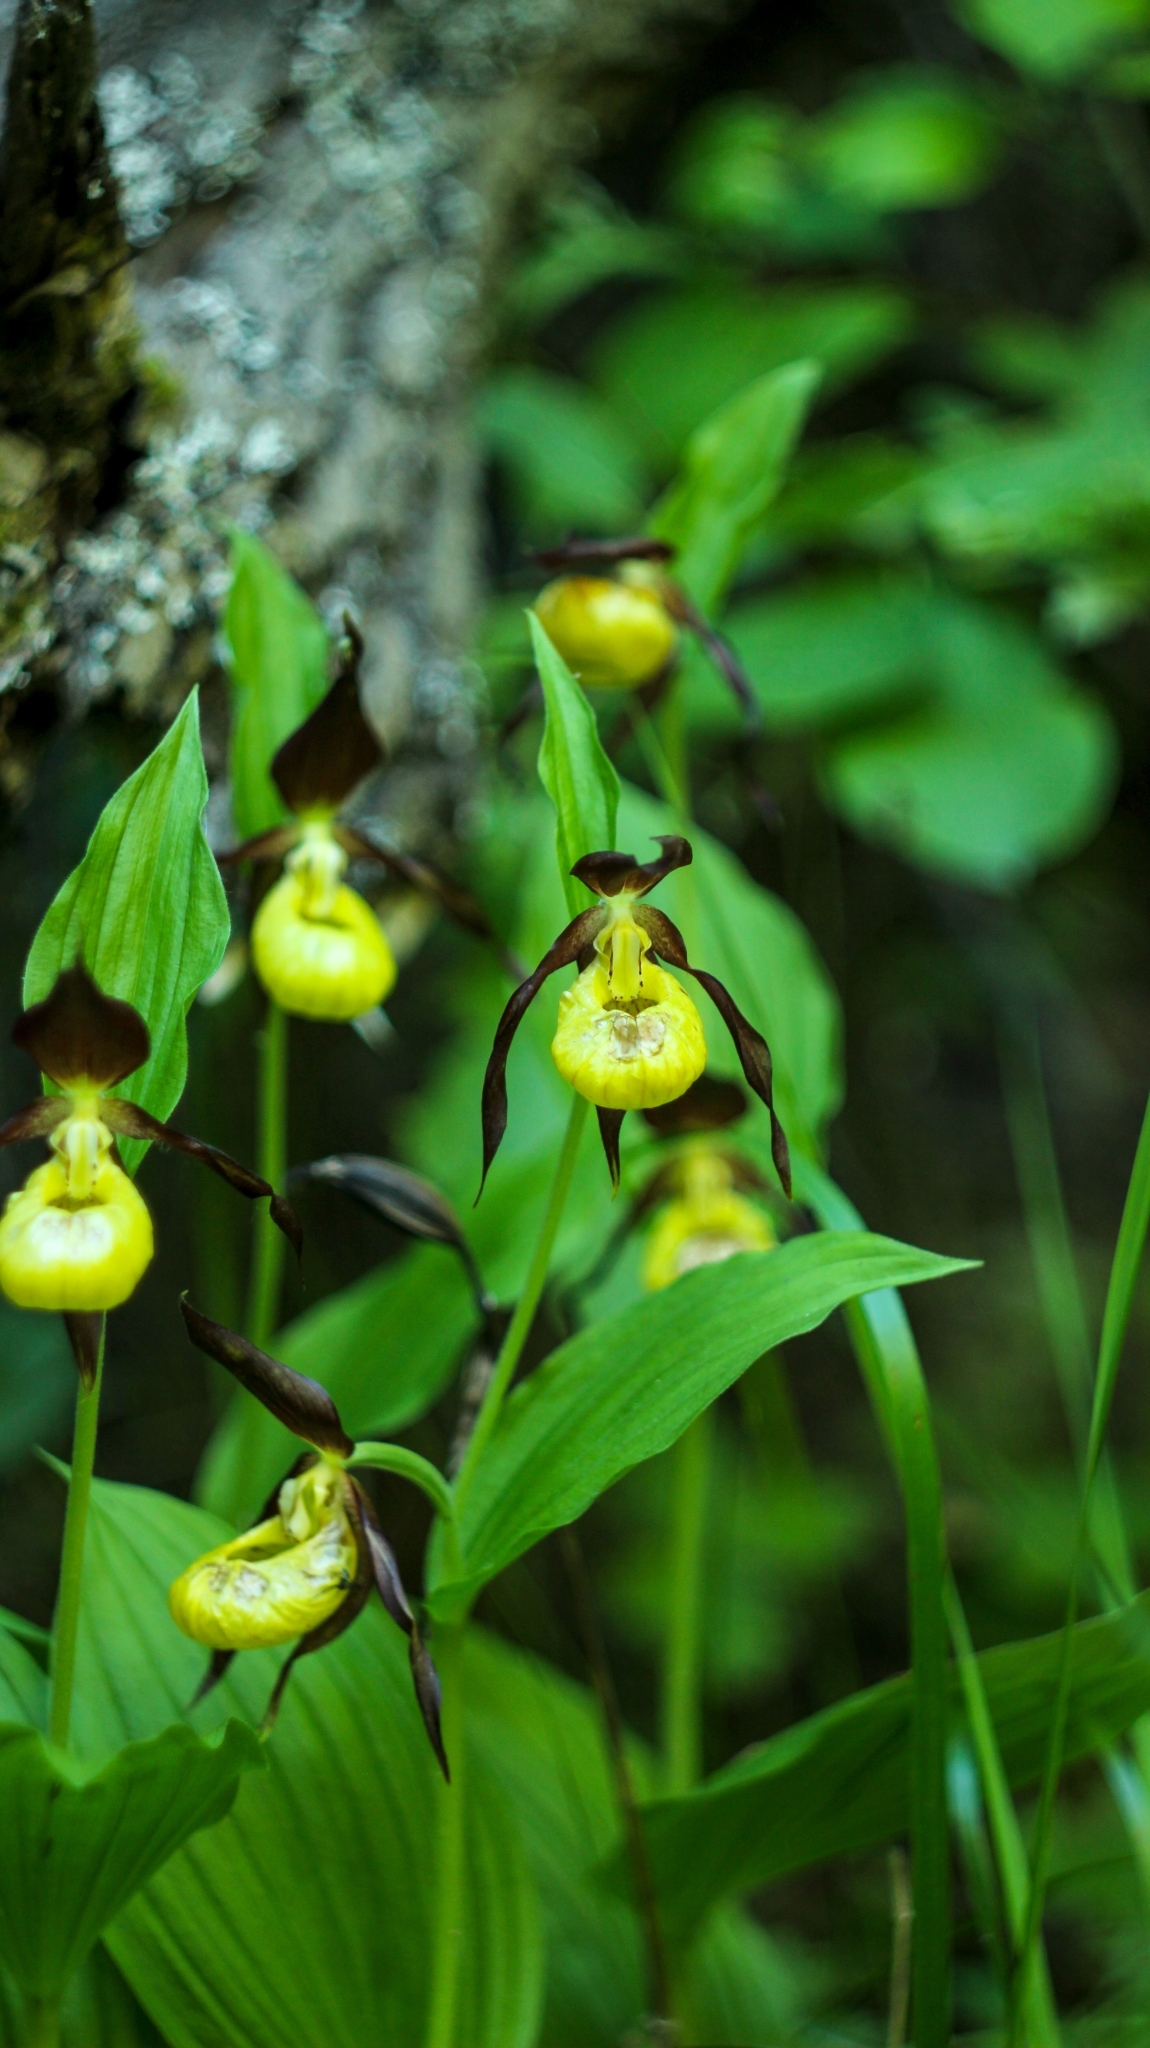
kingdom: Plantae
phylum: Tracheophyta
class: Liliopsida
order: Asparagales
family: Orchidaceae
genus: Cypripedium
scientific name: Cypripedium calceolus
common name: Lady's-slipper
